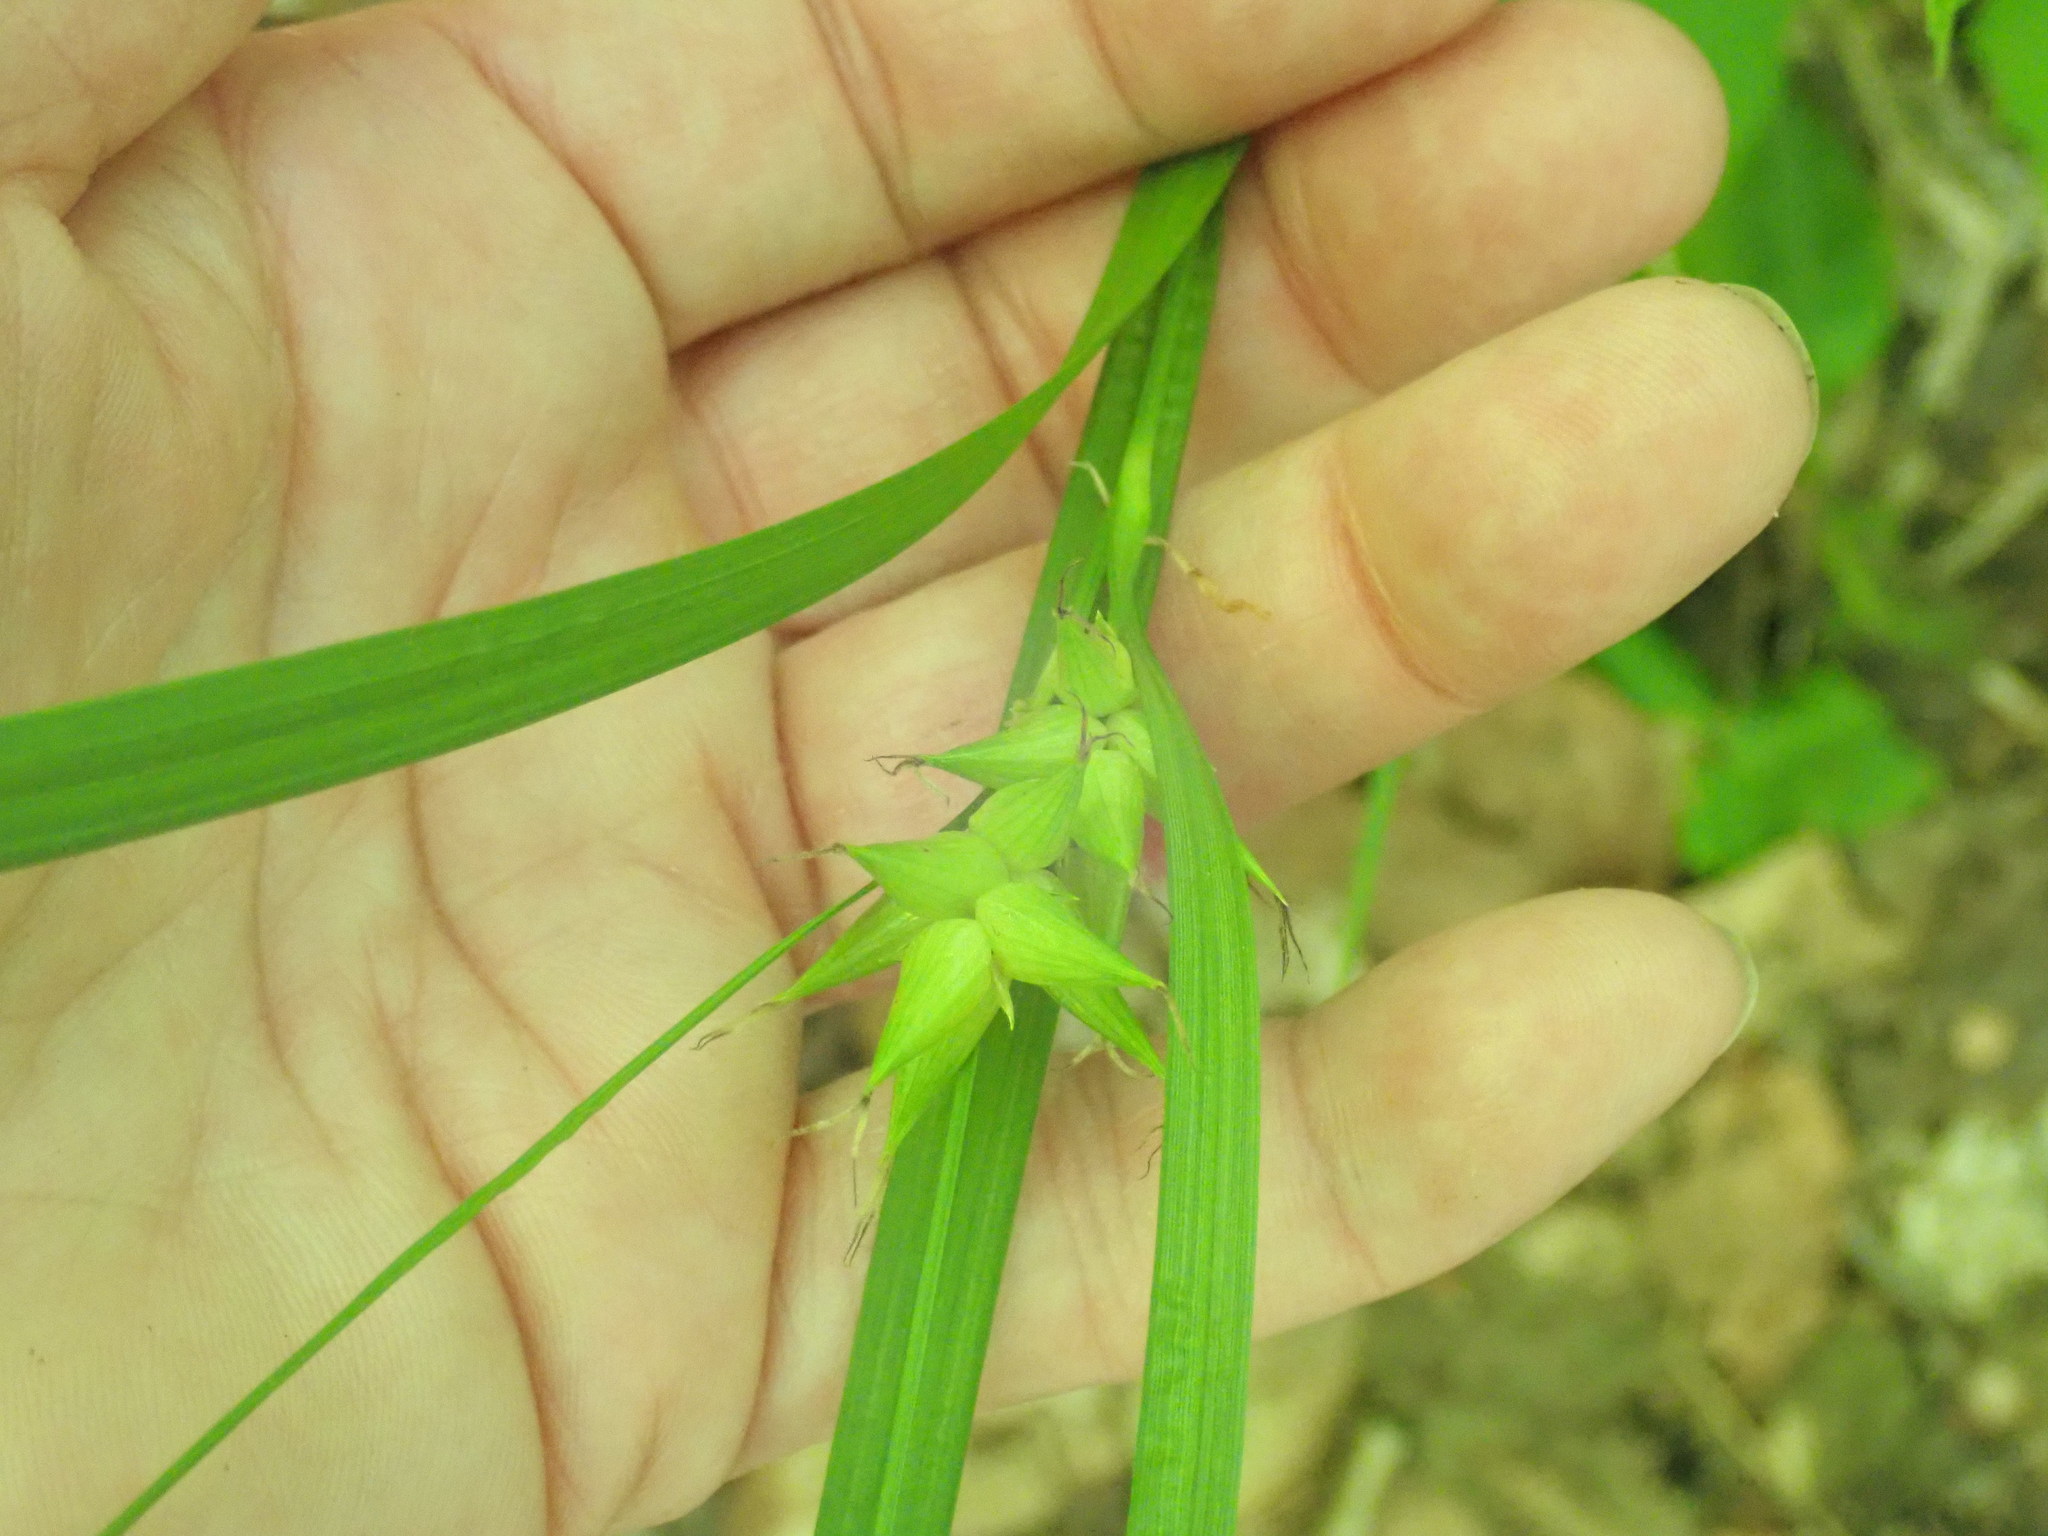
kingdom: Plantae
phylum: Tracheophyta
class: Liliopsida
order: Poales
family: Cyperaceae
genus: Carex
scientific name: Carex intumescens
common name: Greater bladder sedge
